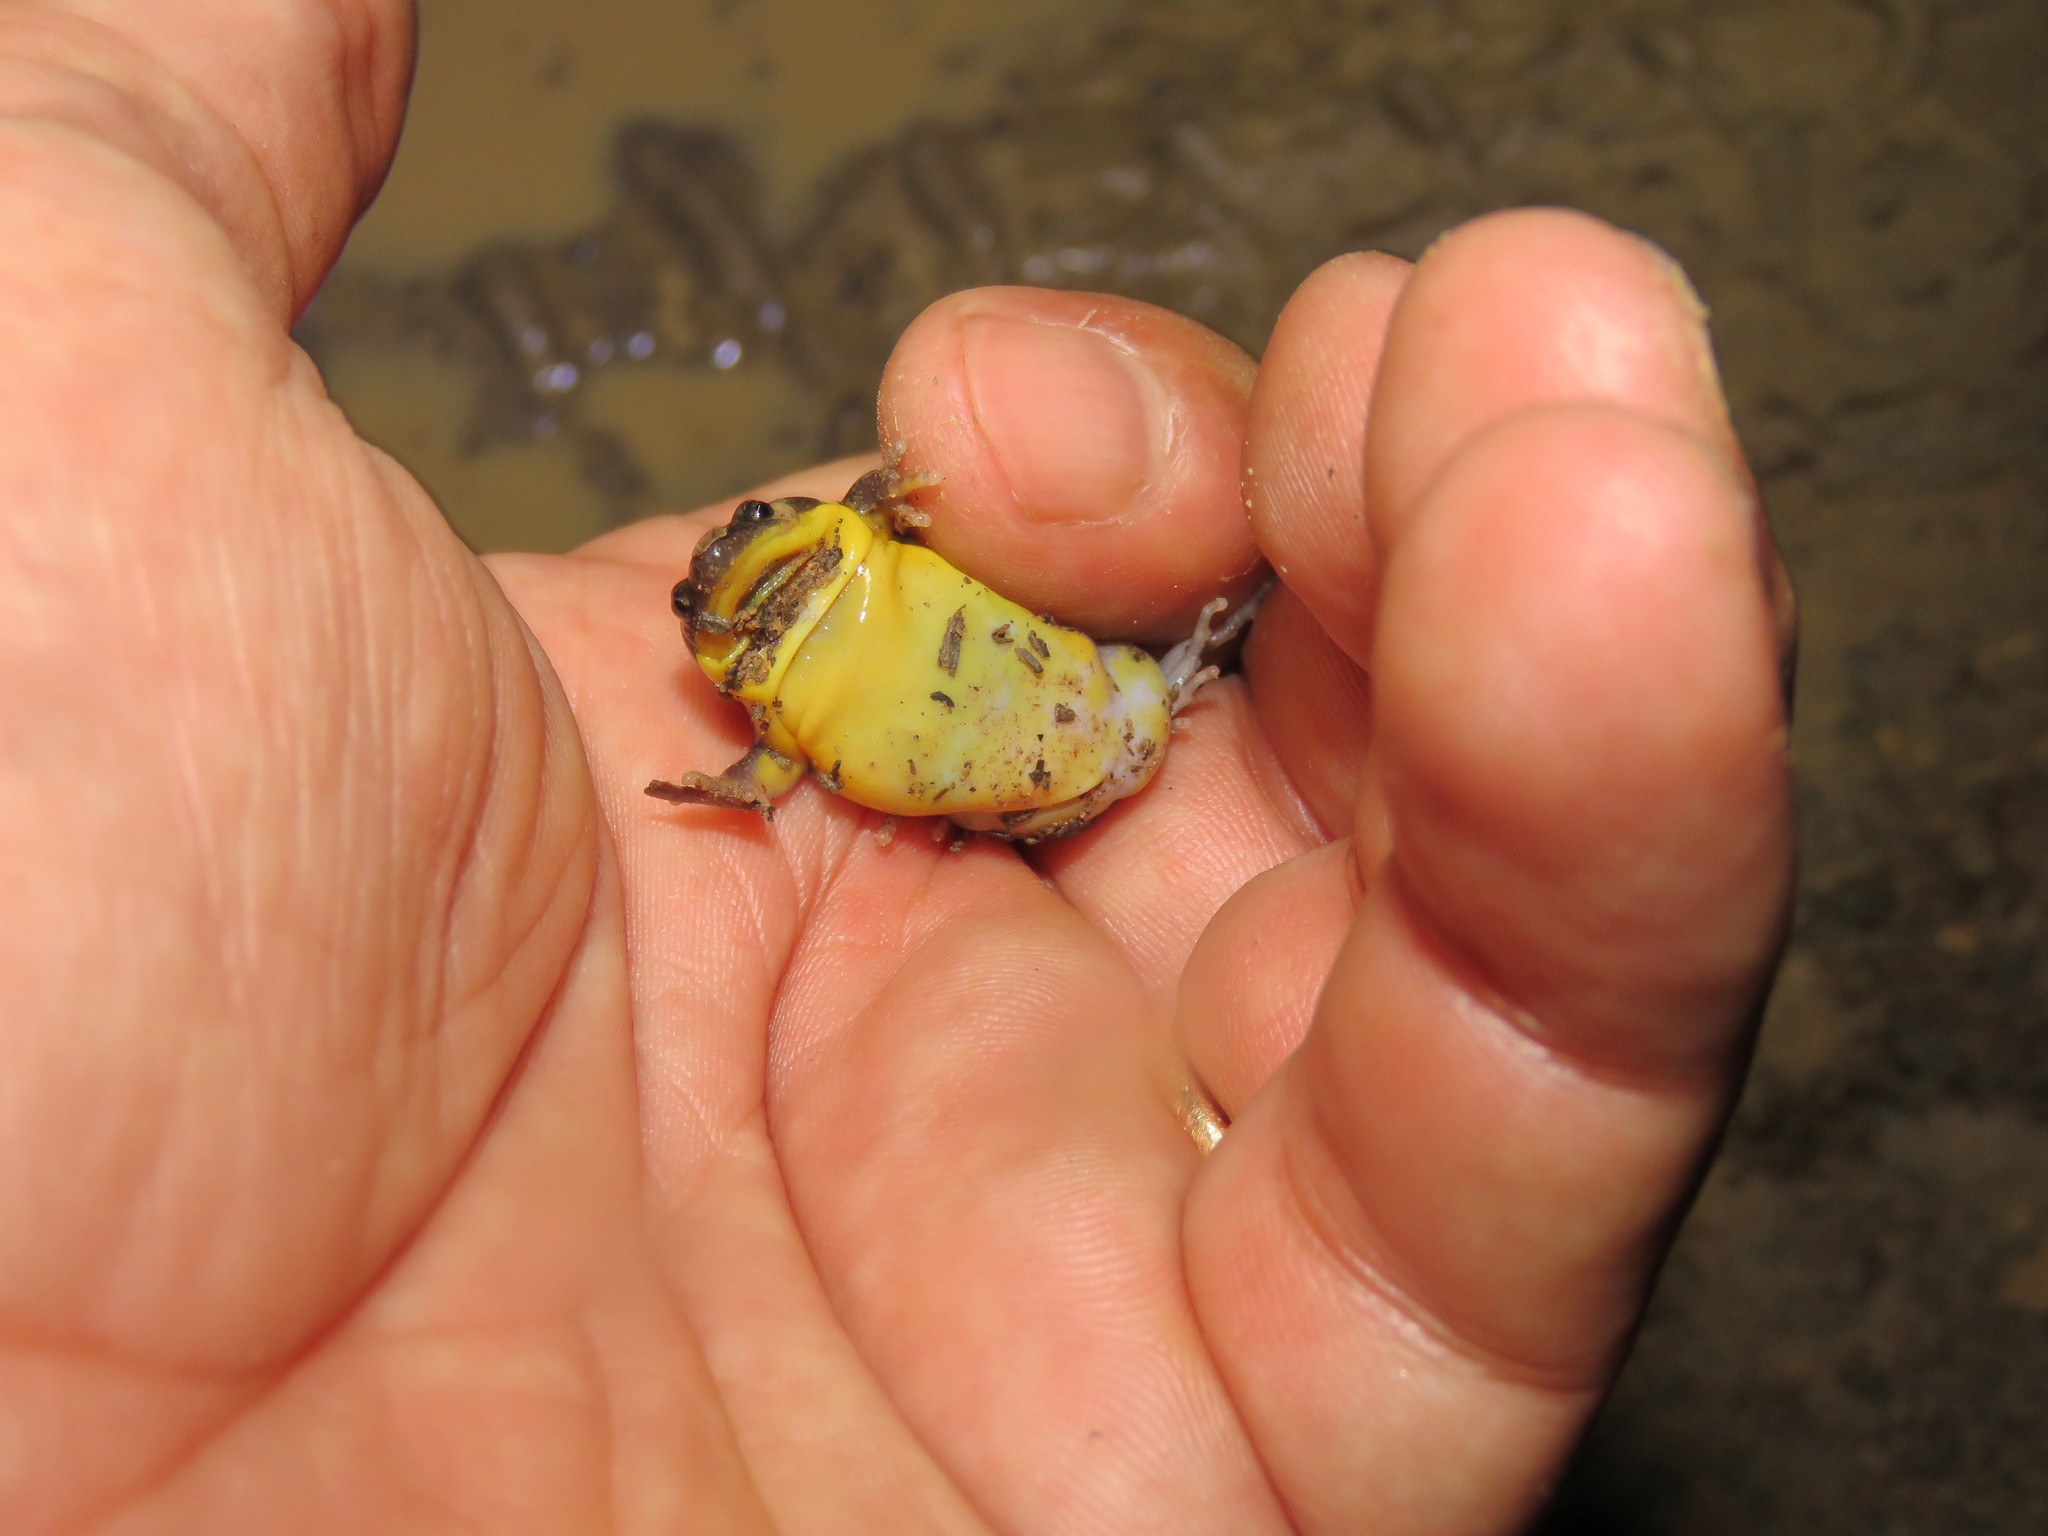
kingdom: Animalia
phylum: Chordata
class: Amphibia
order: Anura
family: Microhylidae
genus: Elachistocleis
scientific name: Elachistocleis helianneae
